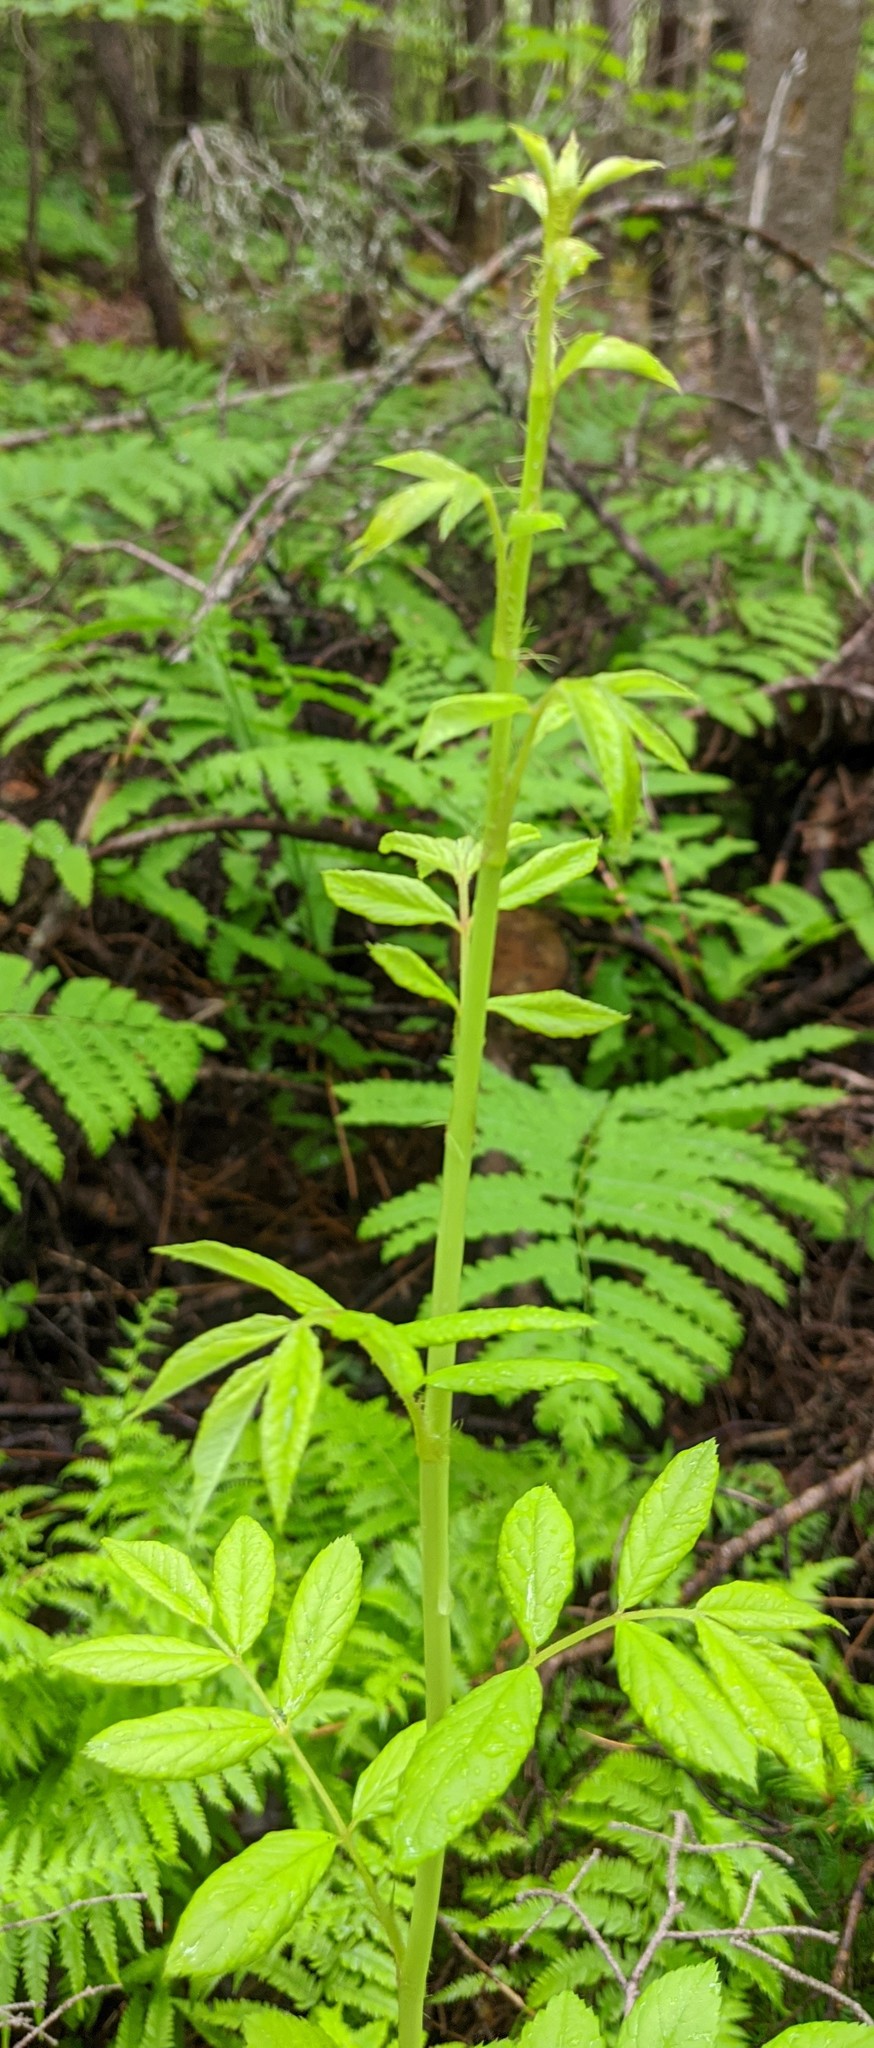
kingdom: Plantae
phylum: Tracheophyta
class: Magnoliopsida
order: Rosales
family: Rosaceae
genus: Rosa
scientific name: Rosa multiflora
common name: Multiflora rose
